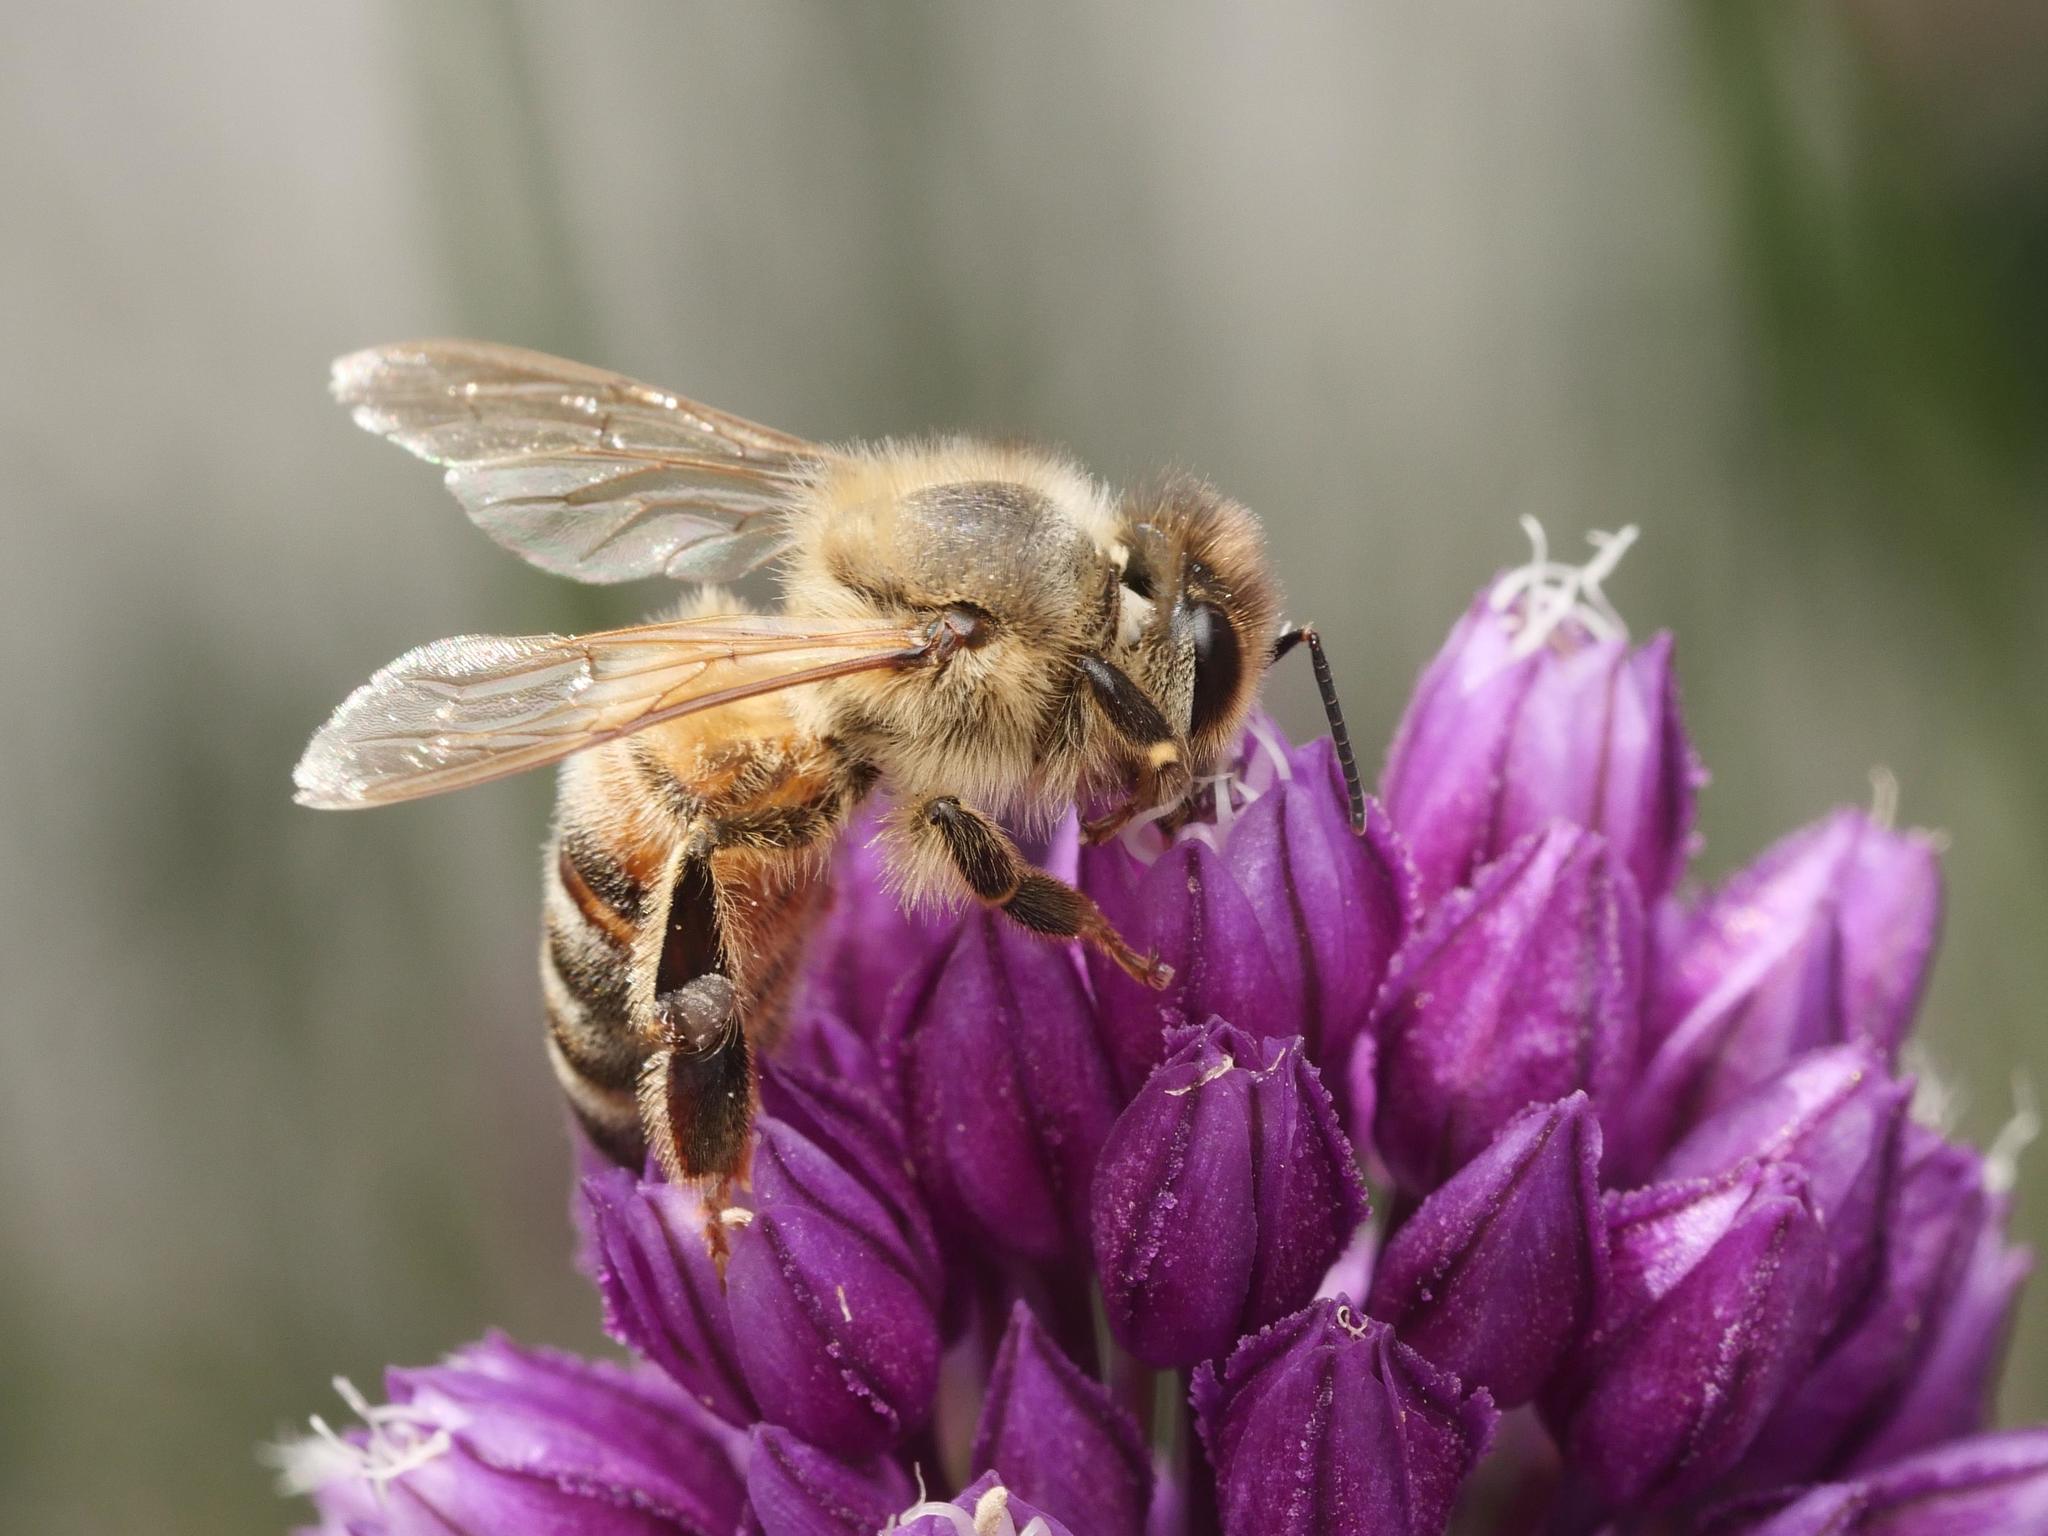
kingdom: Animalia
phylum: Arthropoda
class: Insecta
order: Hymenoptera
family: Apidae
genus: Apis
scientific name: Apis mellifera
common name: Honey bee
